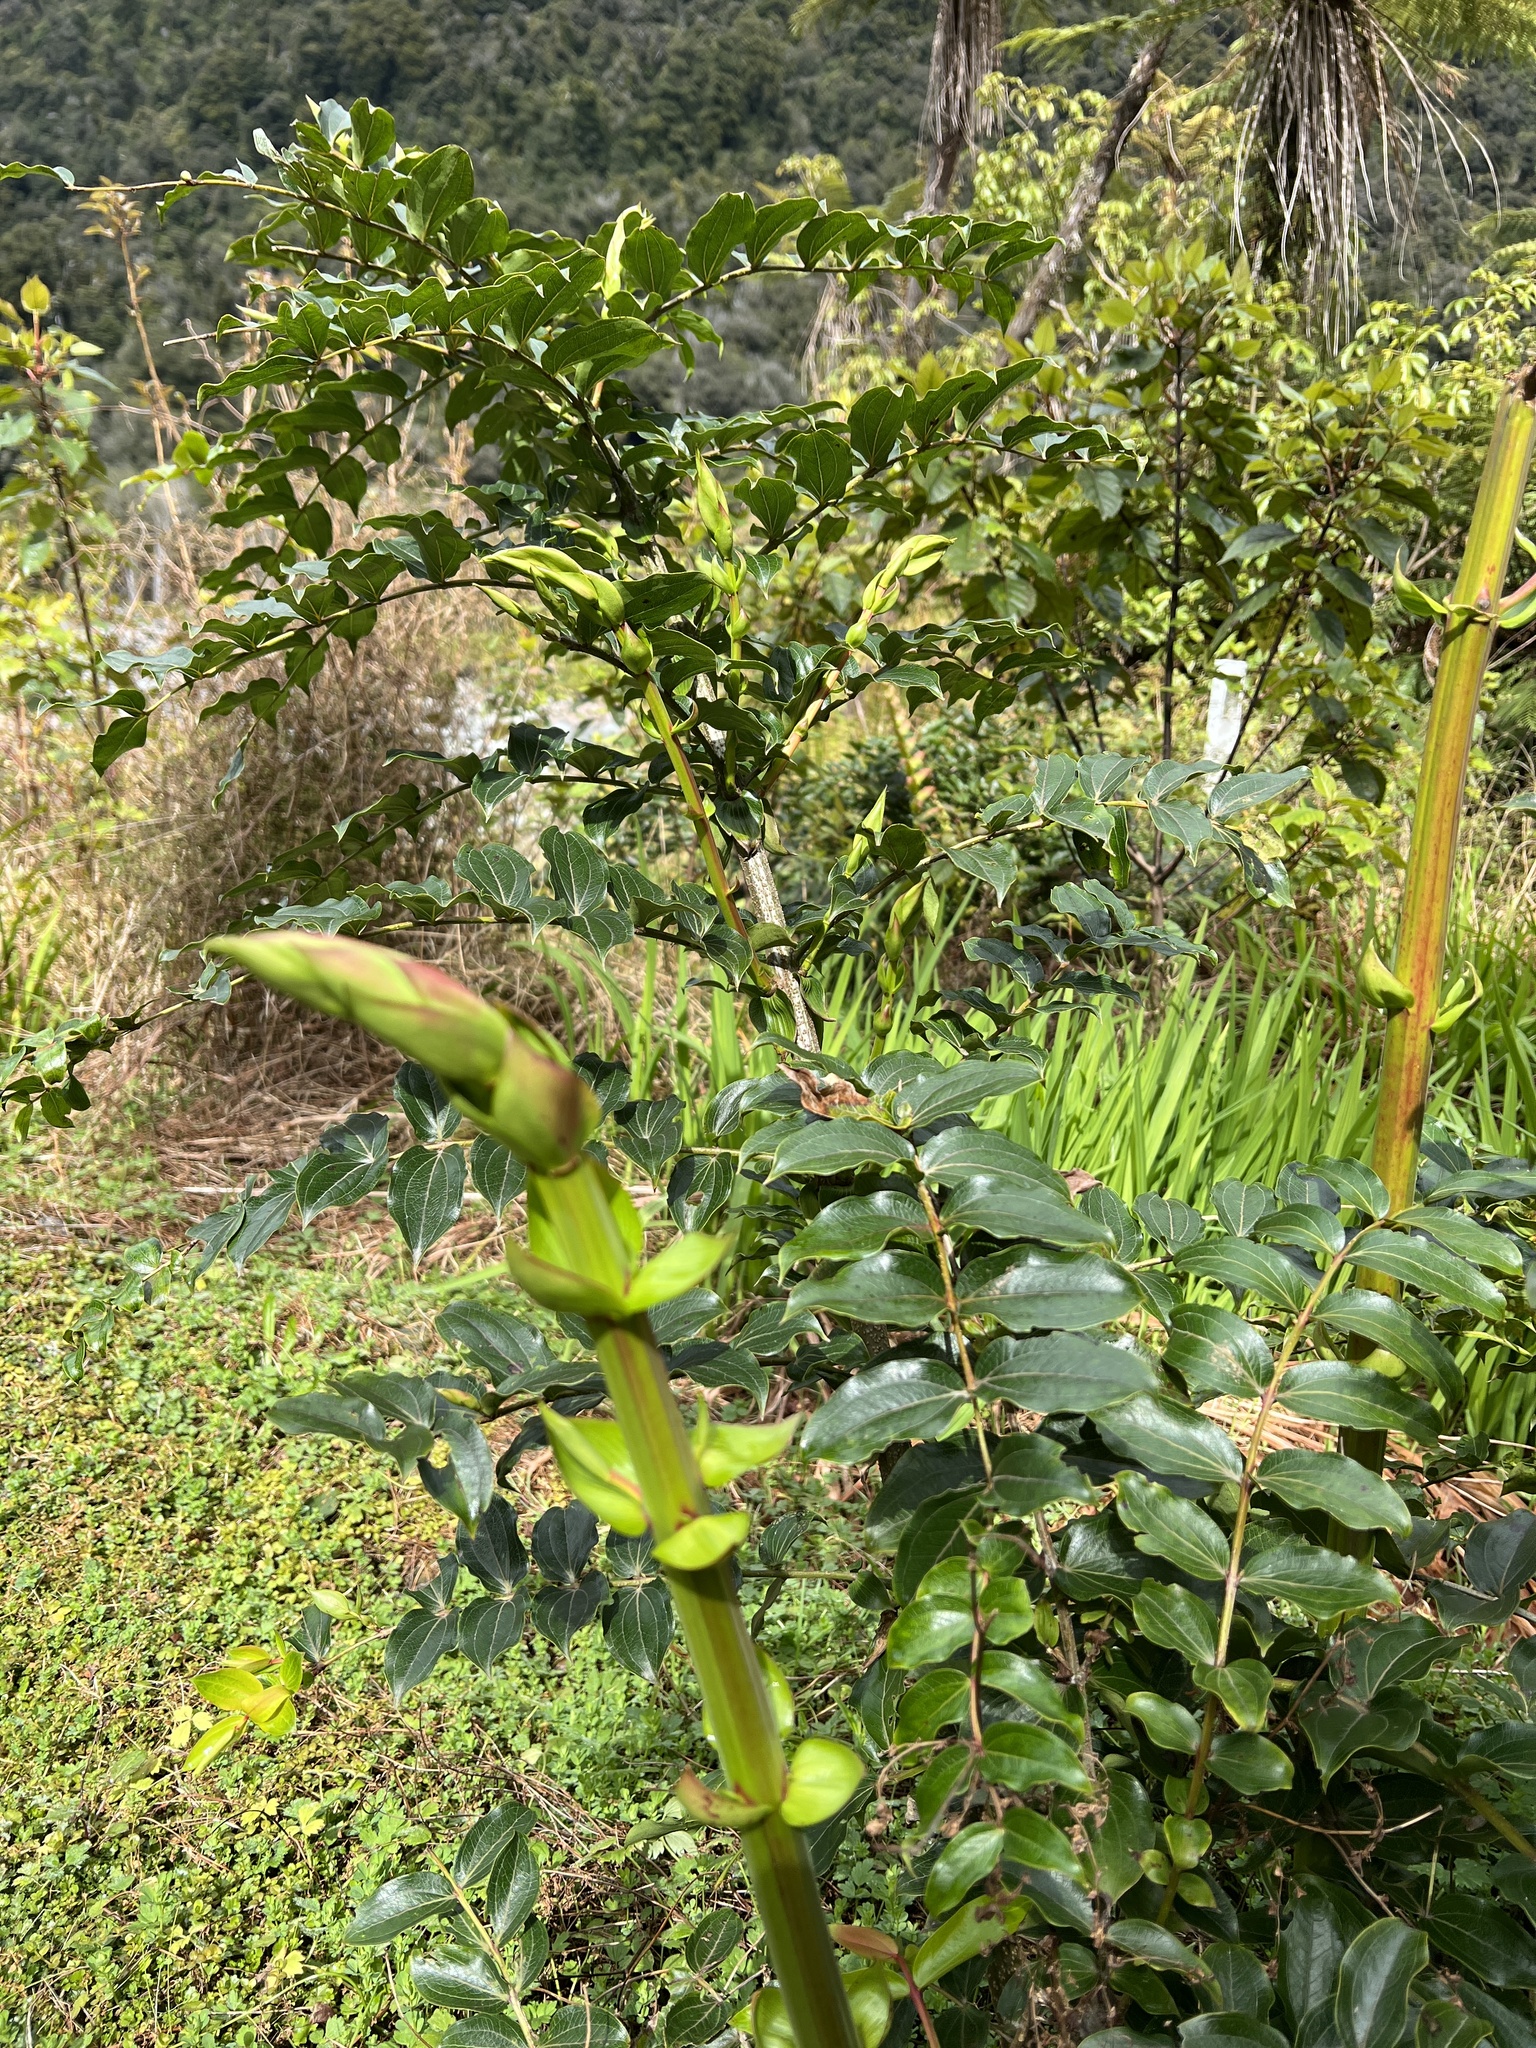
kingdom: Plantae
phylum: Tracheophyta
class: Magnoliopsida
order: Cucurbitales
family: Coriariaceae
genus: Coriaria
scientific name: Coriaria arborea
